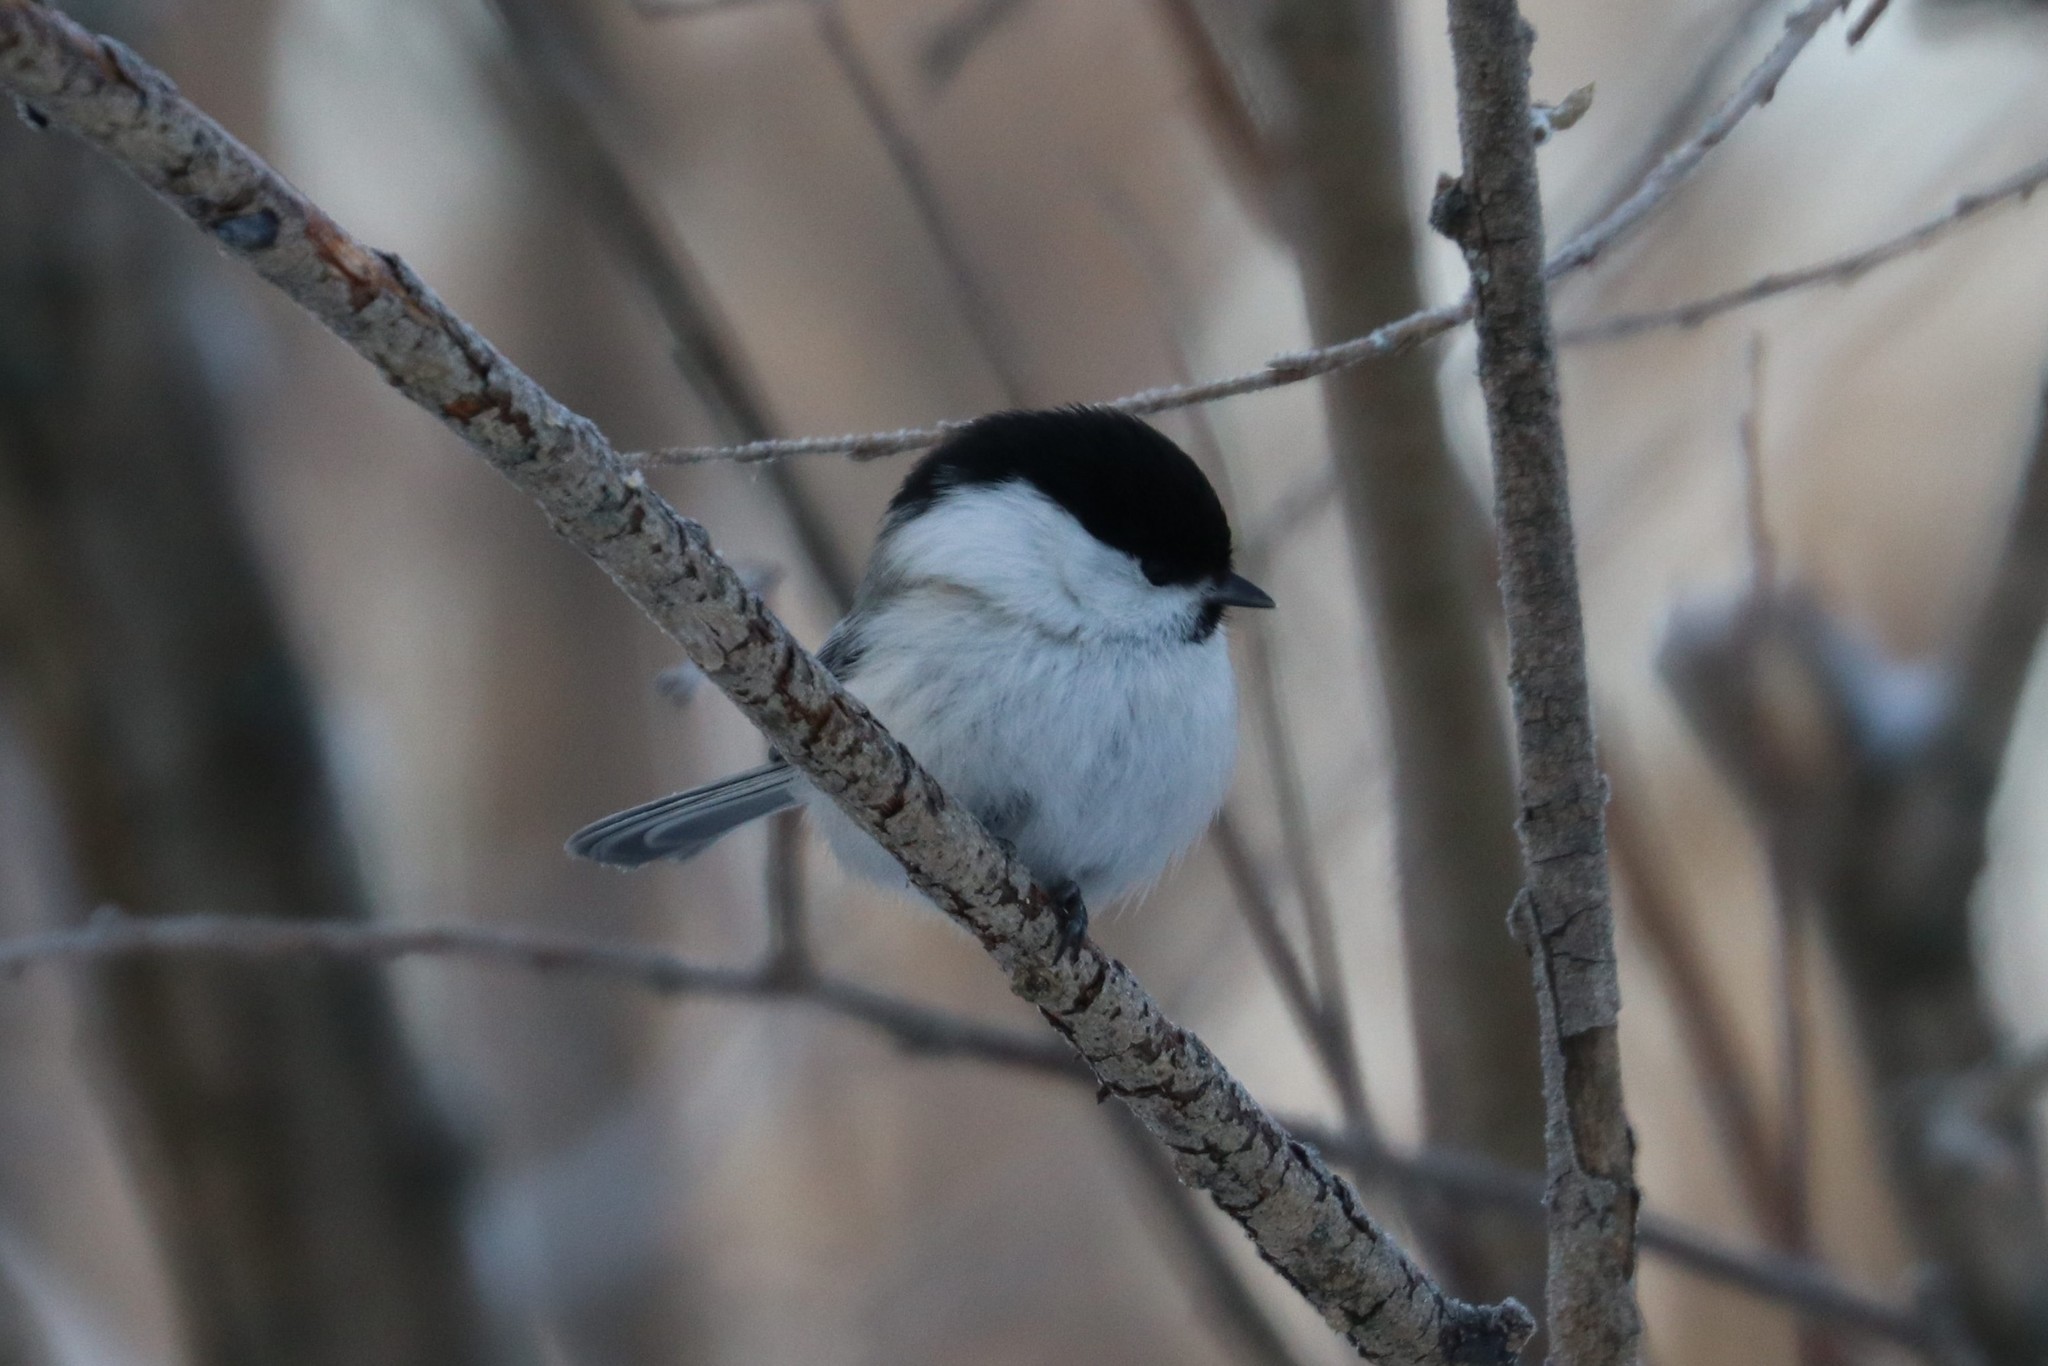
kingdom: Animalia
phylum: Chordata
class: Aves
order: Passeriformes
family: Paridae
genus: Poecile
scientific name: Poecile montanus
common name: Willow tit
